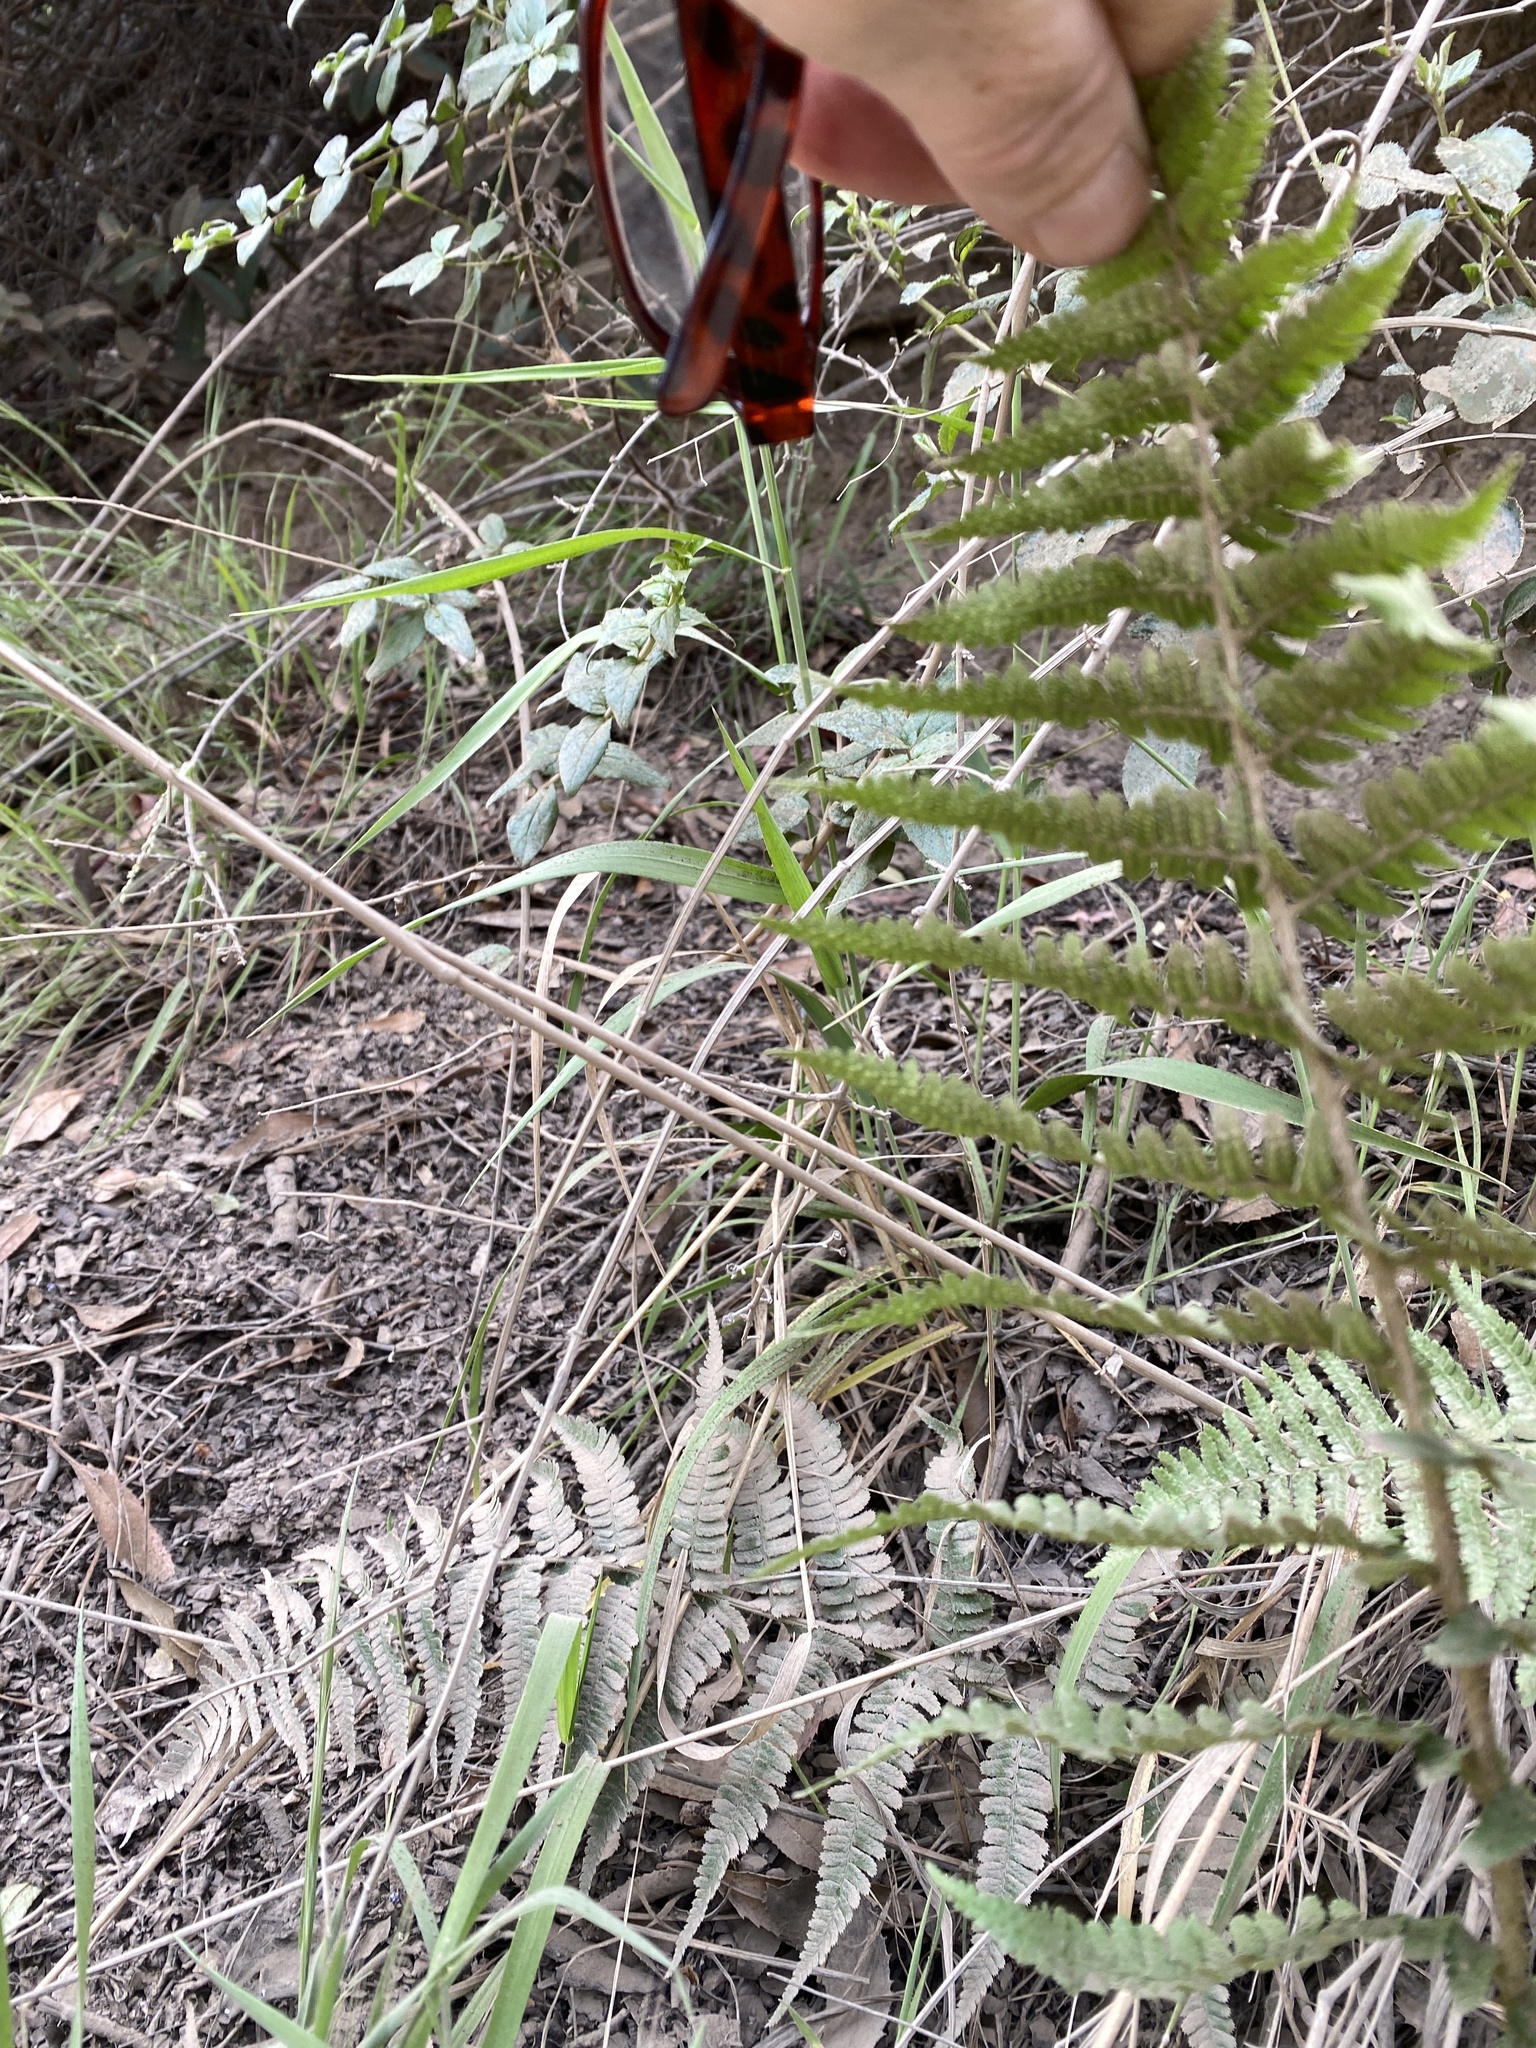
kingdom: Plantae
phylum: Tracheophyta
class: Polypodiopsida
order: Polypodiales
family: Dryopteridaceae
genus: Dryopteris
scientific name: Dryopteris arguta
